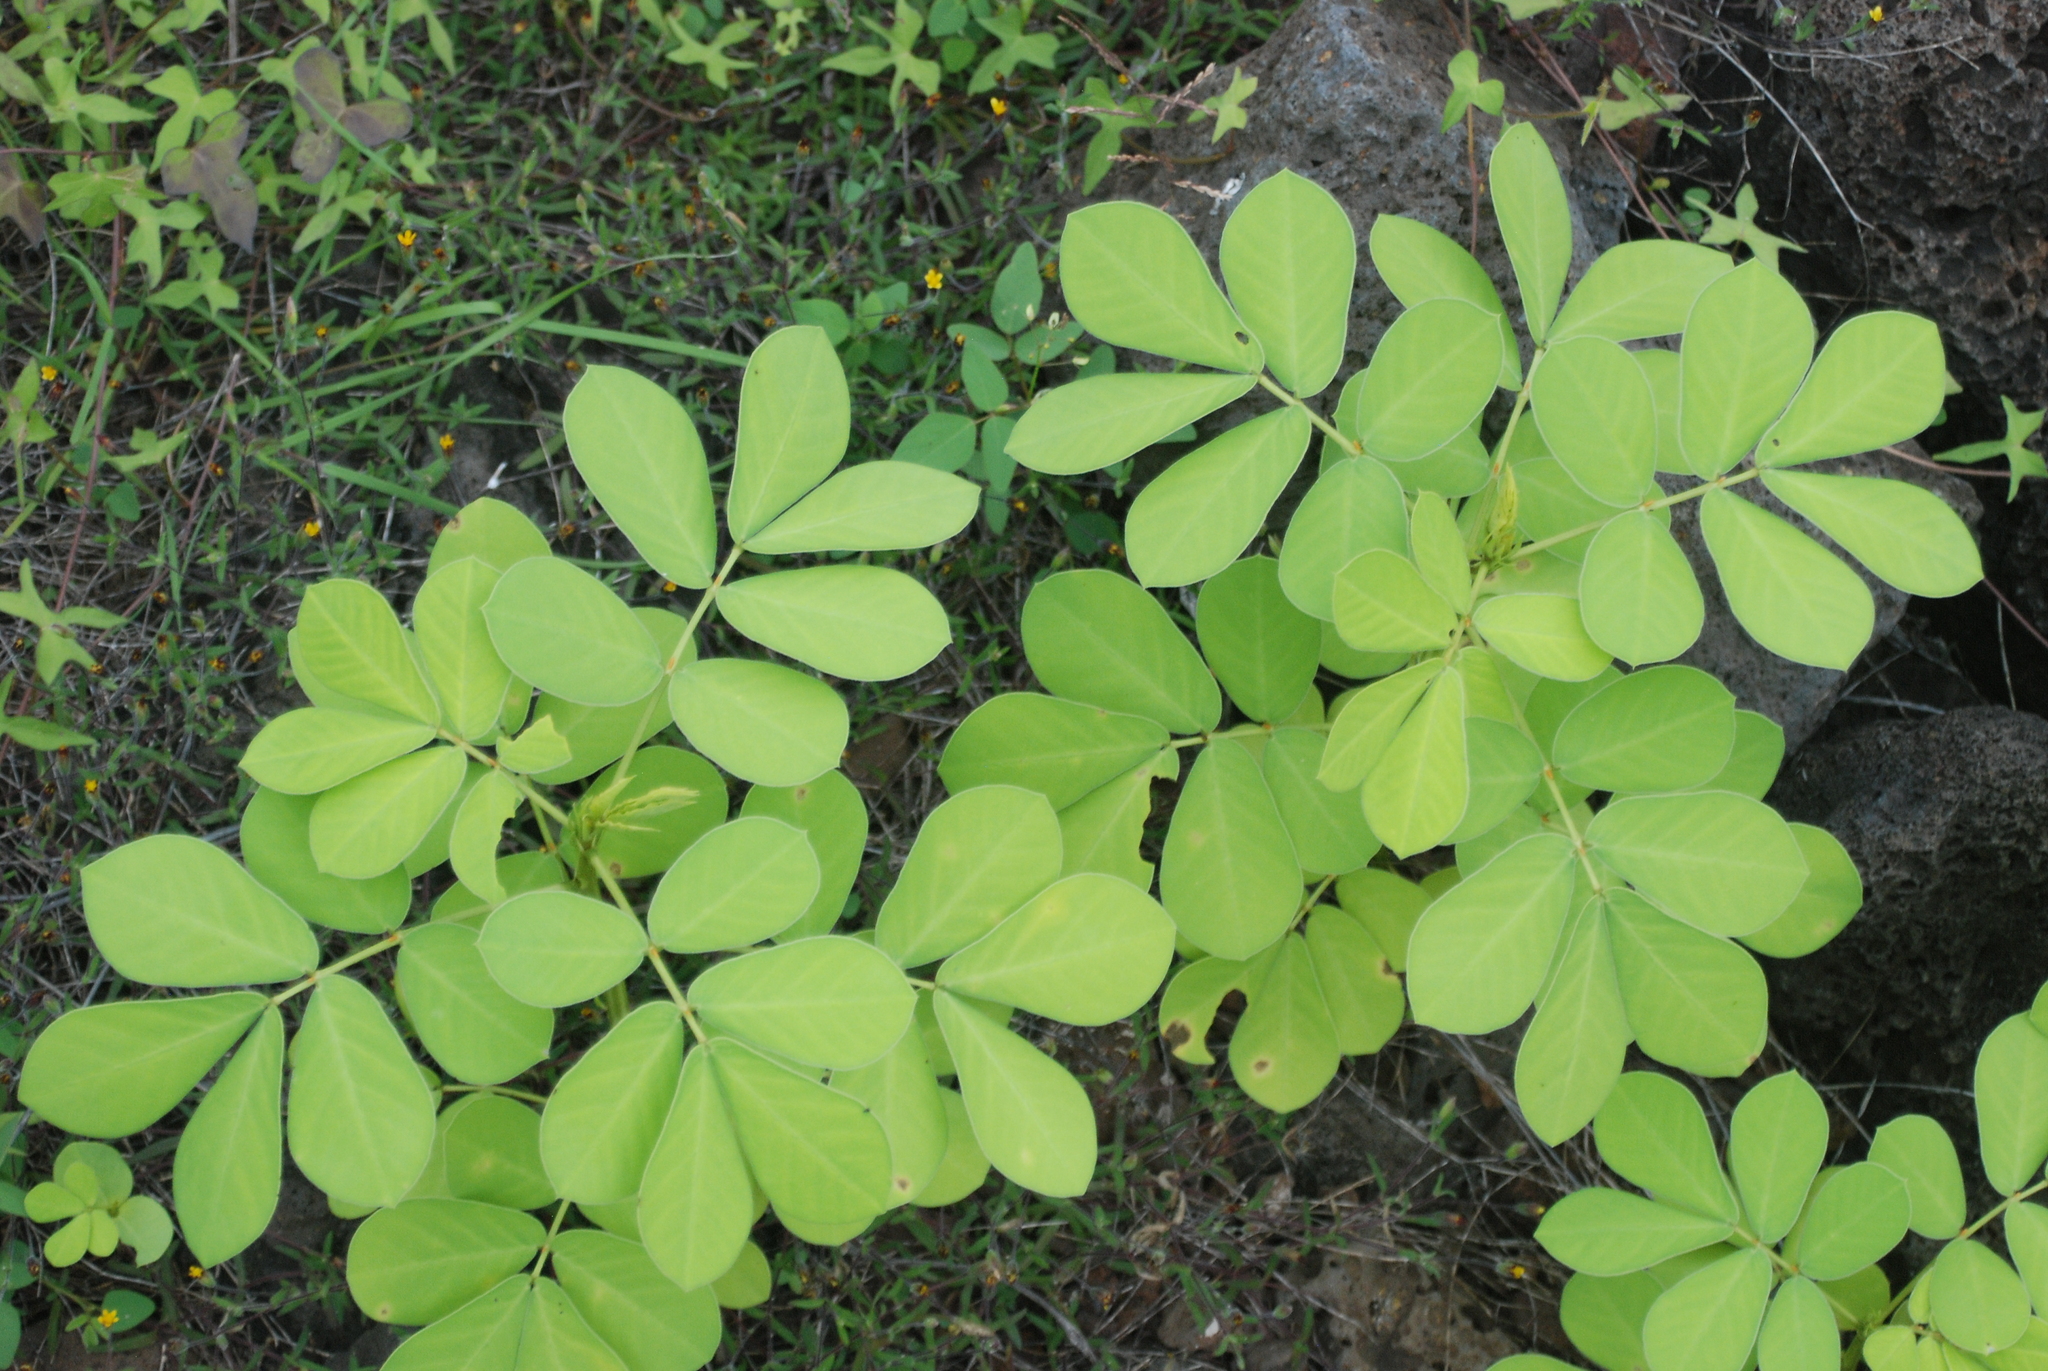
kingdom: Plantae
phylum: Tracheophyta
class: Magnoliopsida
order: Fabales
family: Fabaceae
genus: Senna
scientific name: Senna
